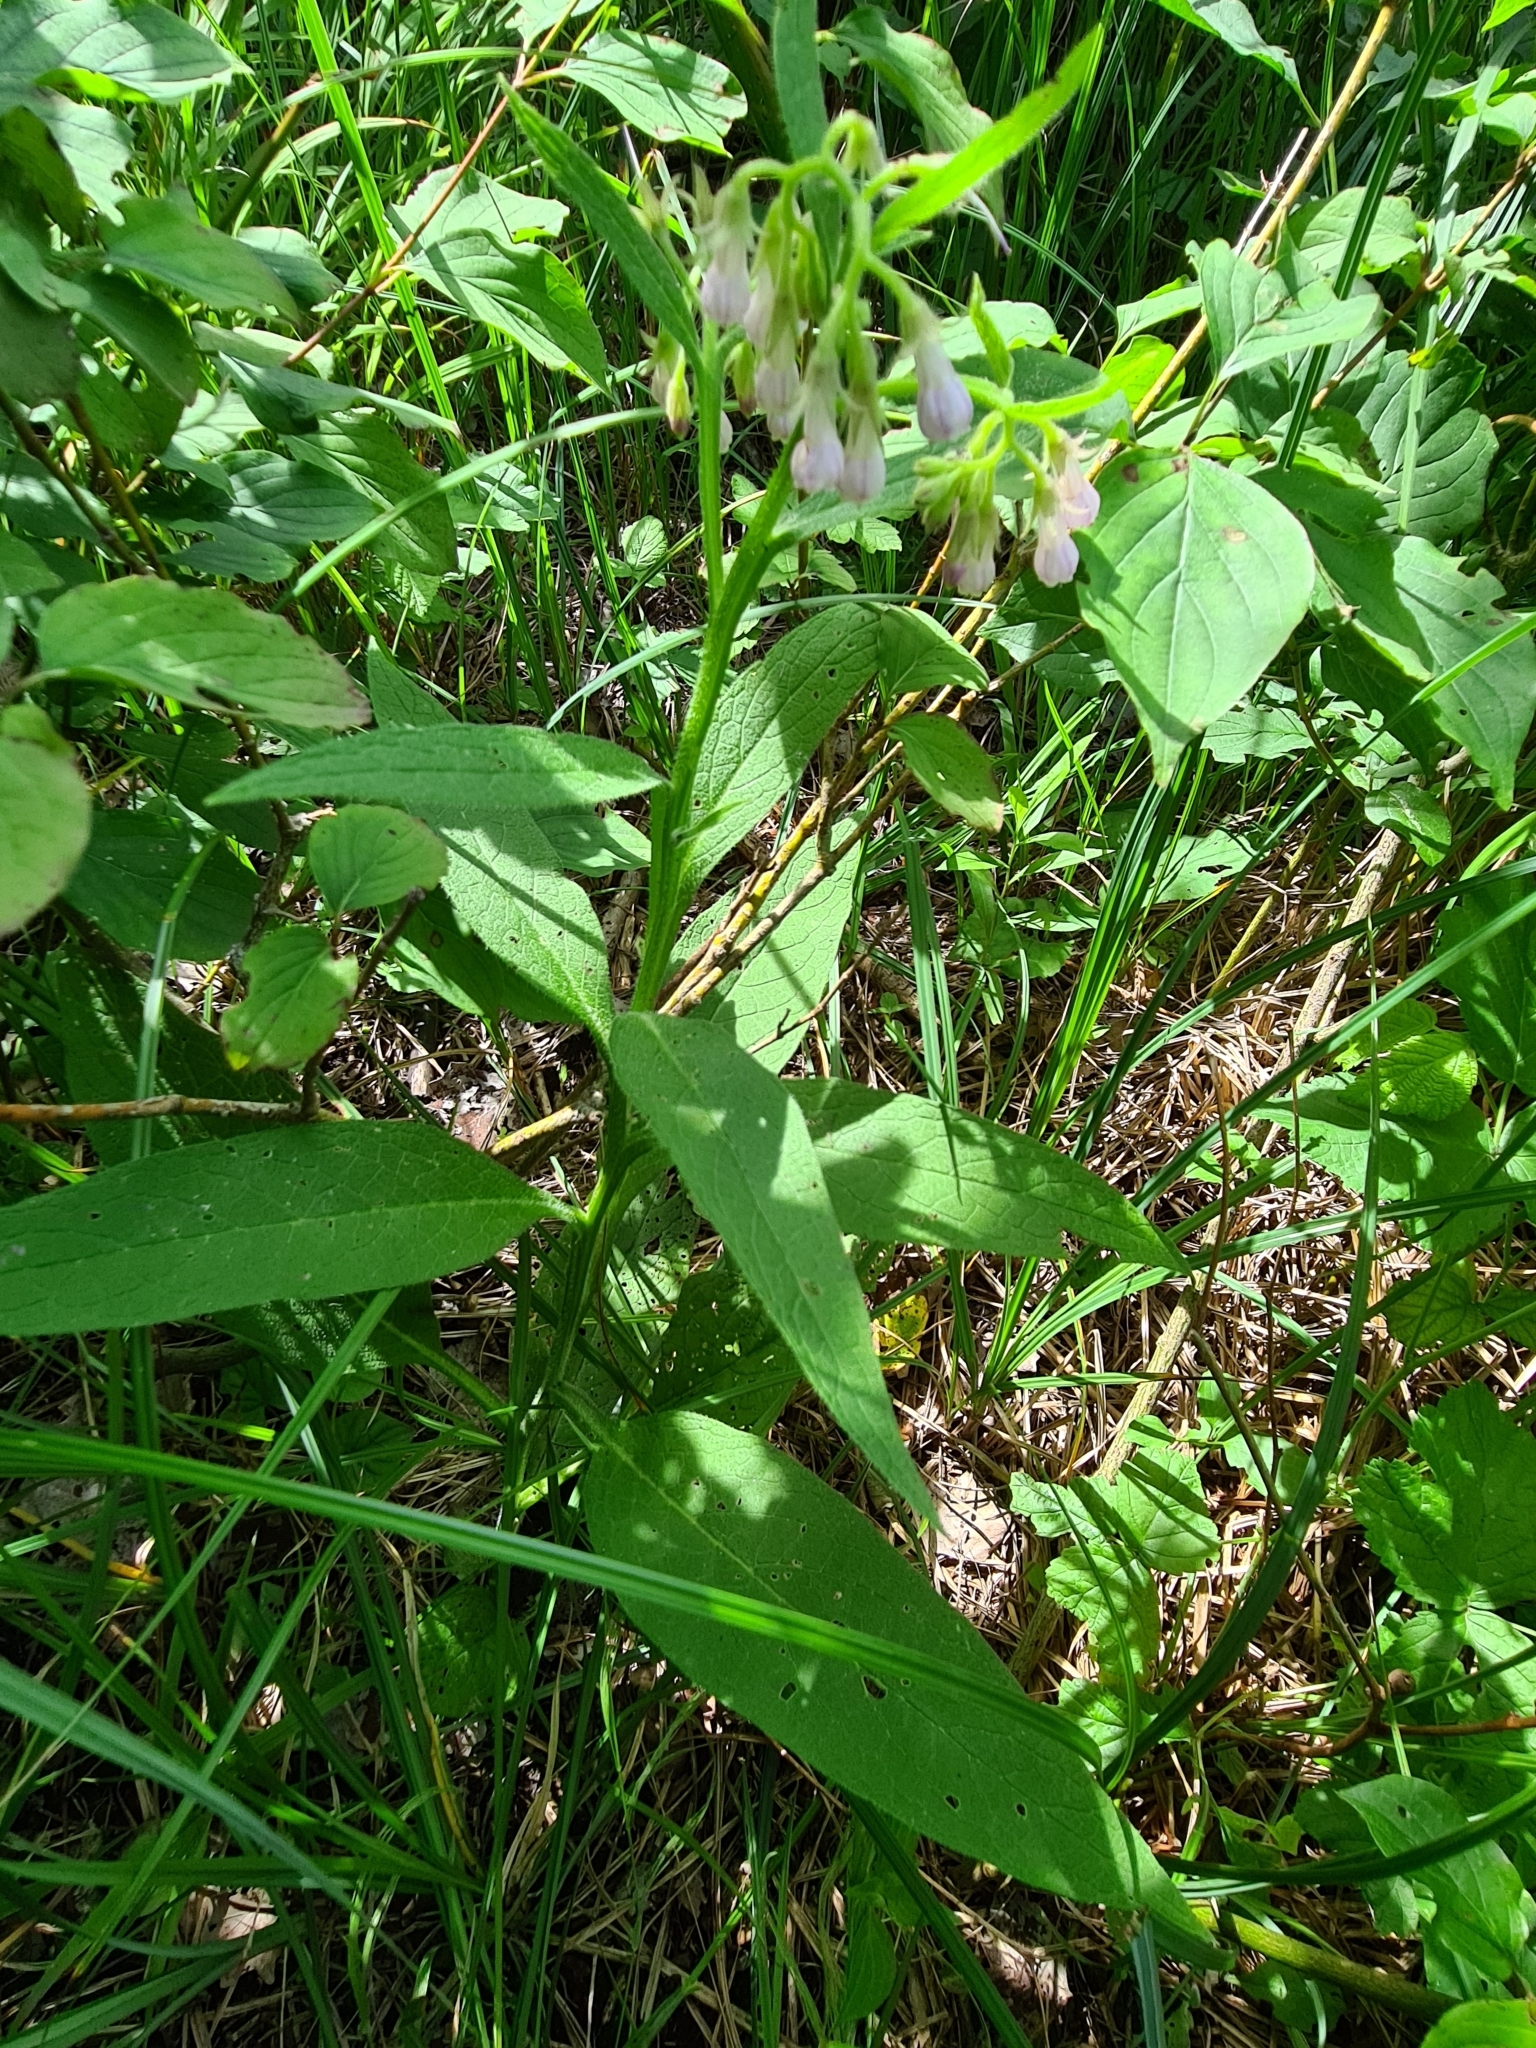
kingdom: Plantae
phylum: Tracheophyta
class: Magnoliopsida
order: Boraginales
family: Boraginaceae
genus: Symphytum
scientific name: Symphytum officinale
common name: Common comfrey
